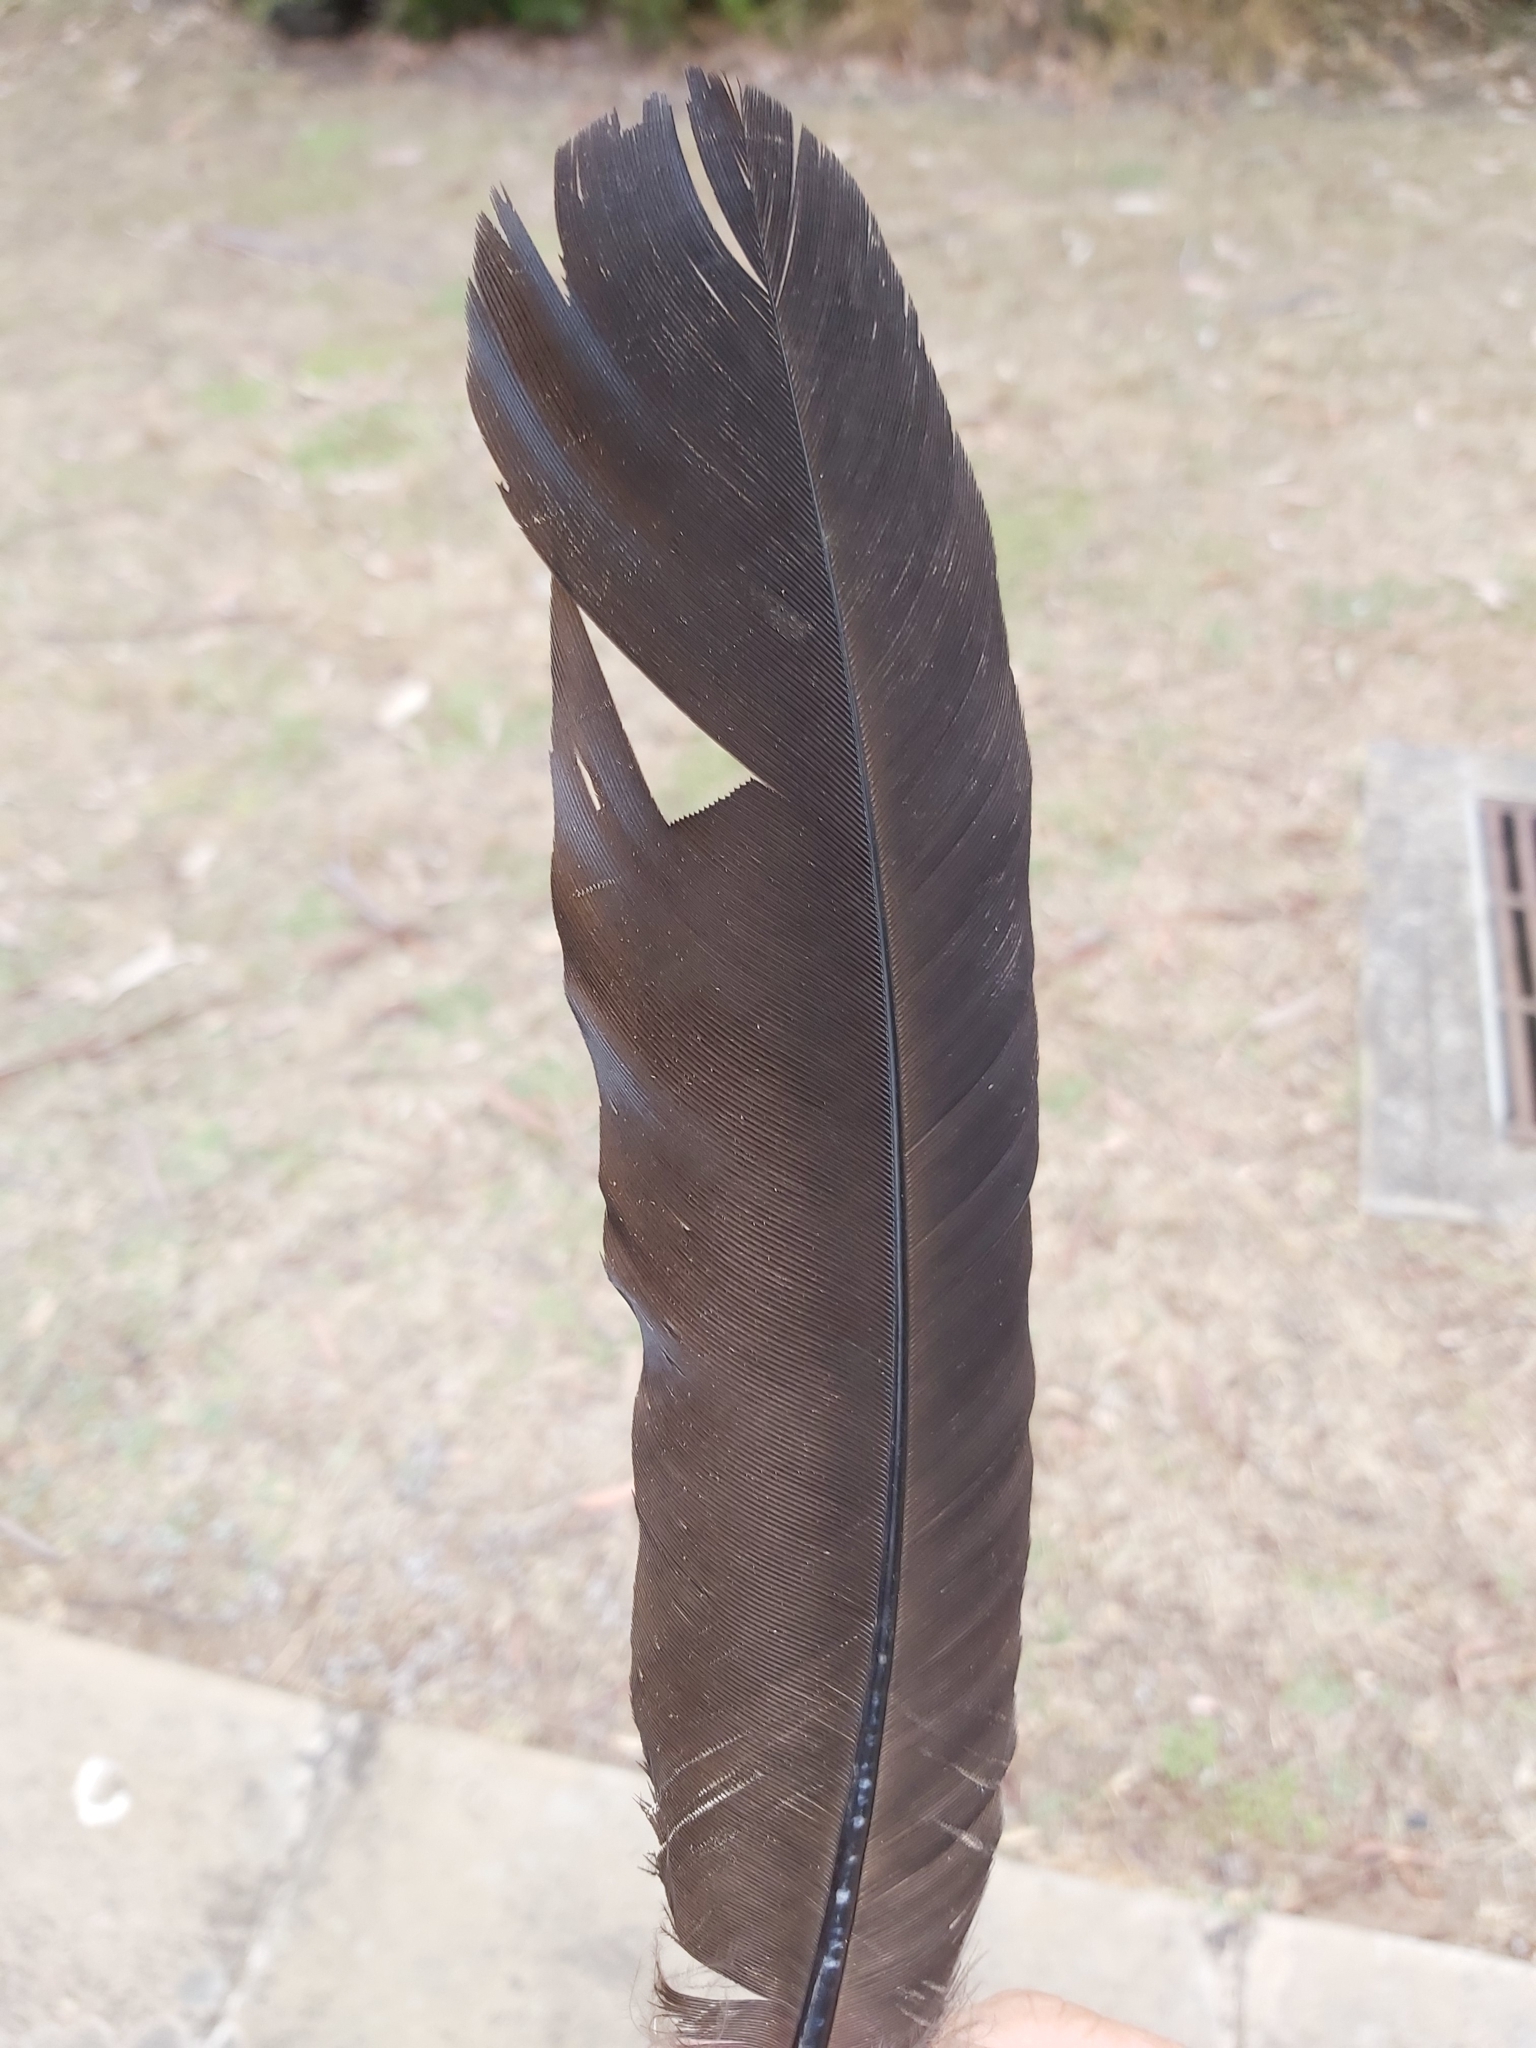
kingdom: Animalia
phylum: Chordata
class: Aves
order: Galliformes
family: Megapodiidae
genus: Alectura
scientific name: Alectura lathami
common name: Australian brushturkey
